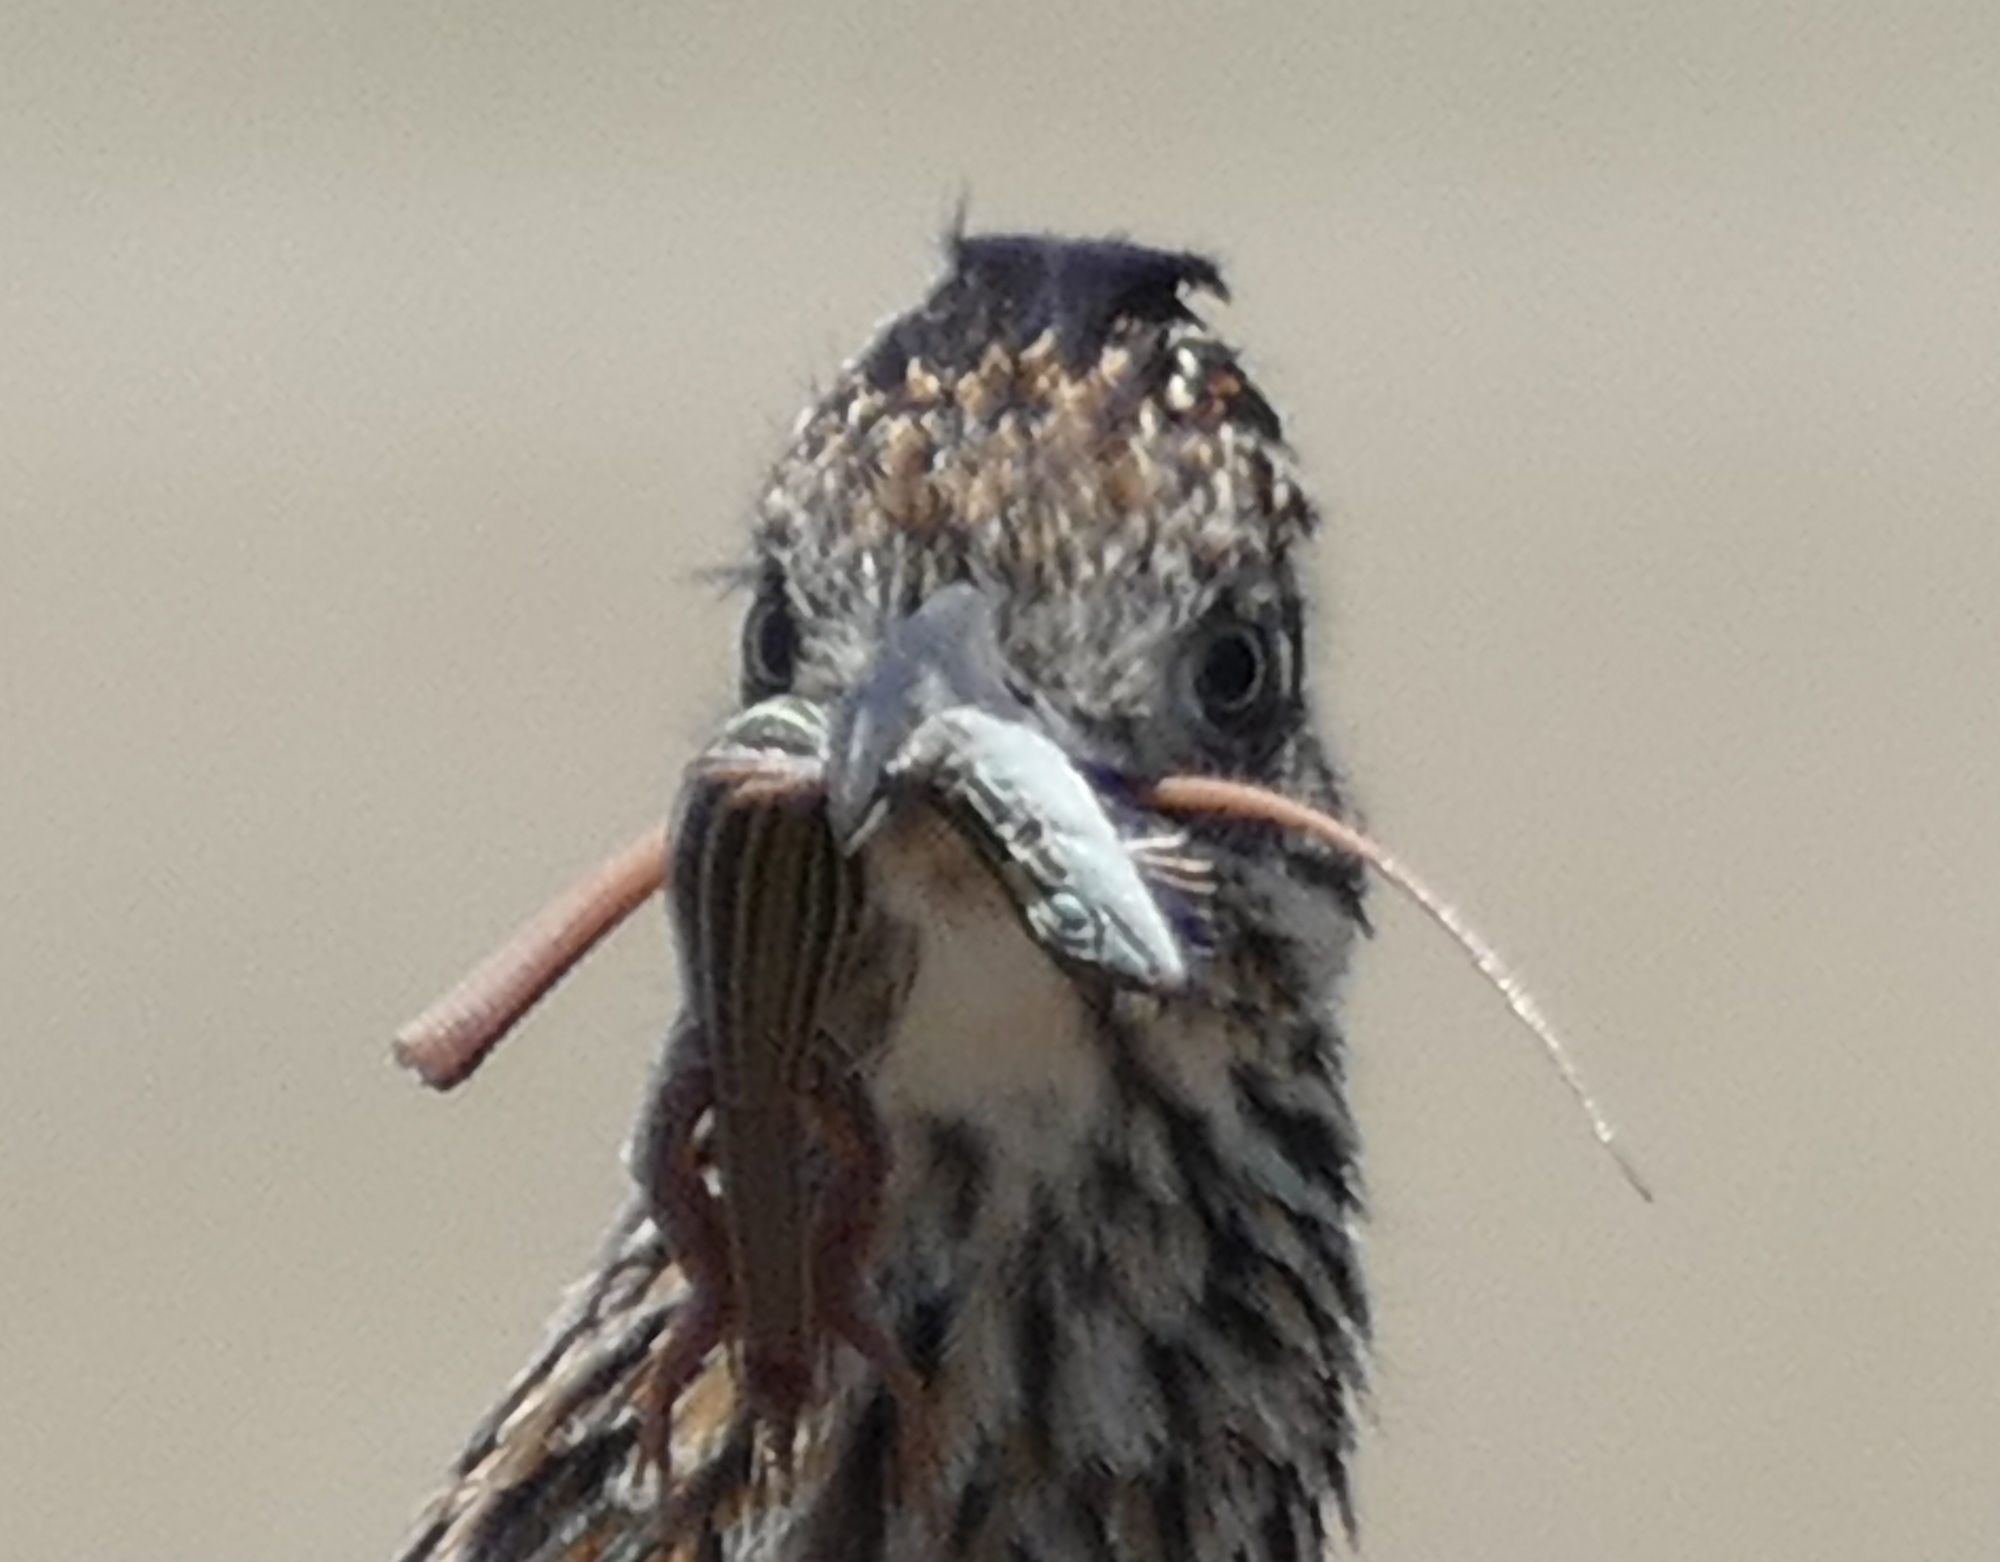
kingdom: Animalia
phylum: Chordata
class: Squamata
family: Teiidae
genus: Aspidoscelis
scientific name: Aspidoscelis gularis
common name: Eastern spotted whiptail
